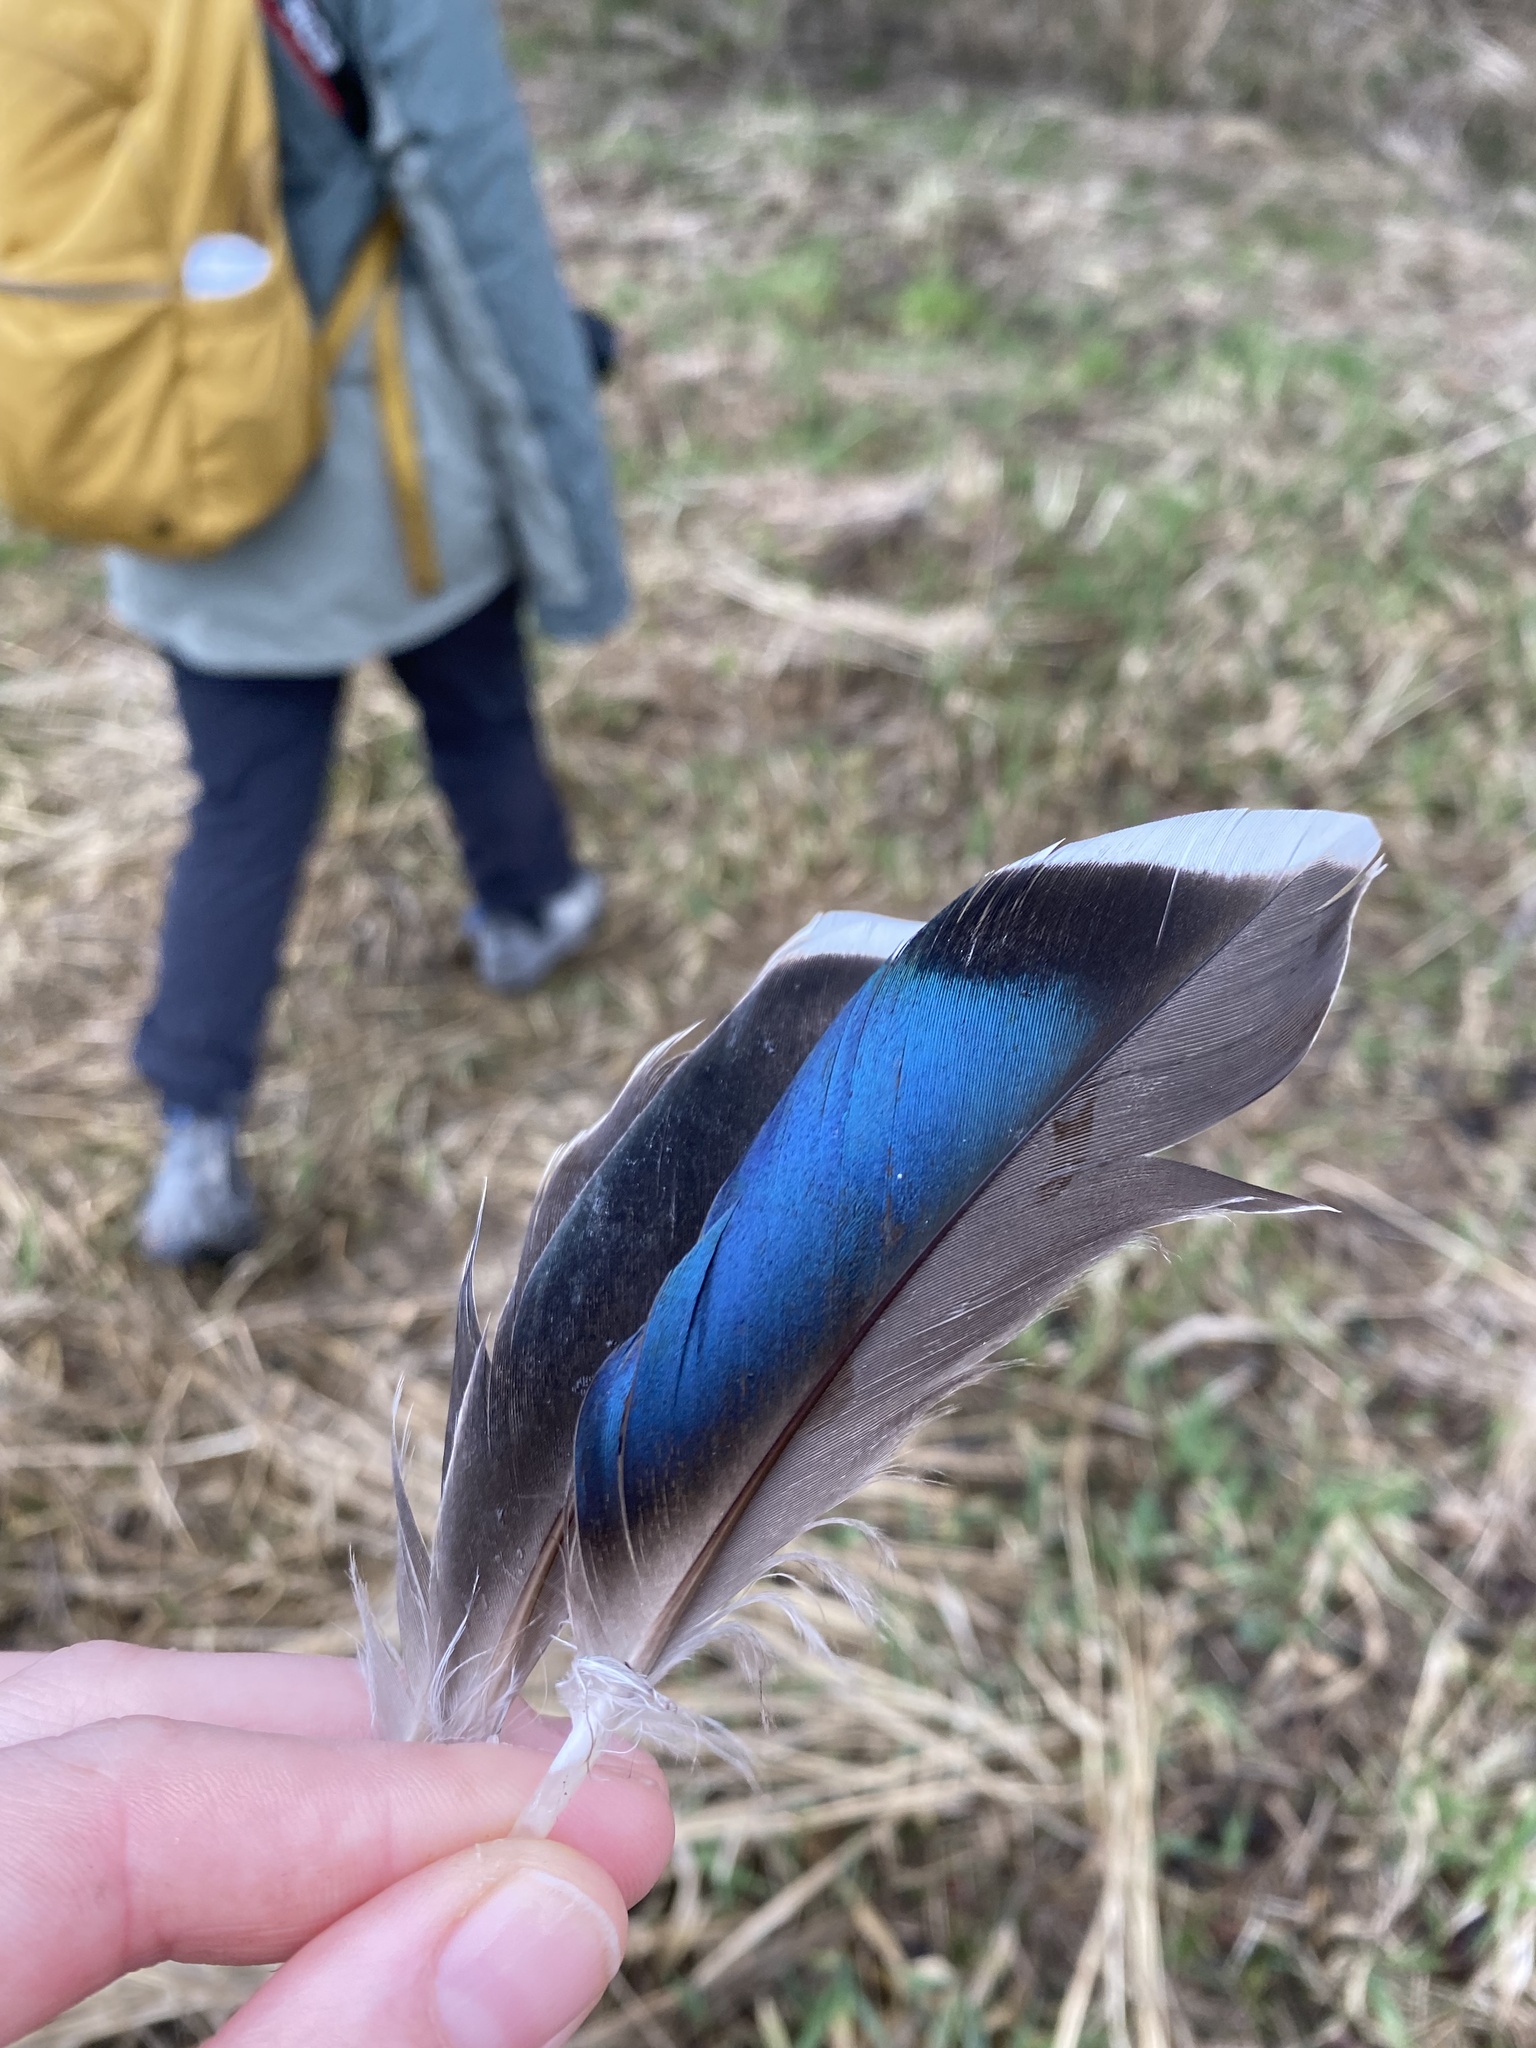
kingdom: Animalia
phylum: Chordata
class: Aves
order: Anseriformes
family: Anatidae
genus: Anas
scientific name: Anas platyrhynchos
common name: Mallard
